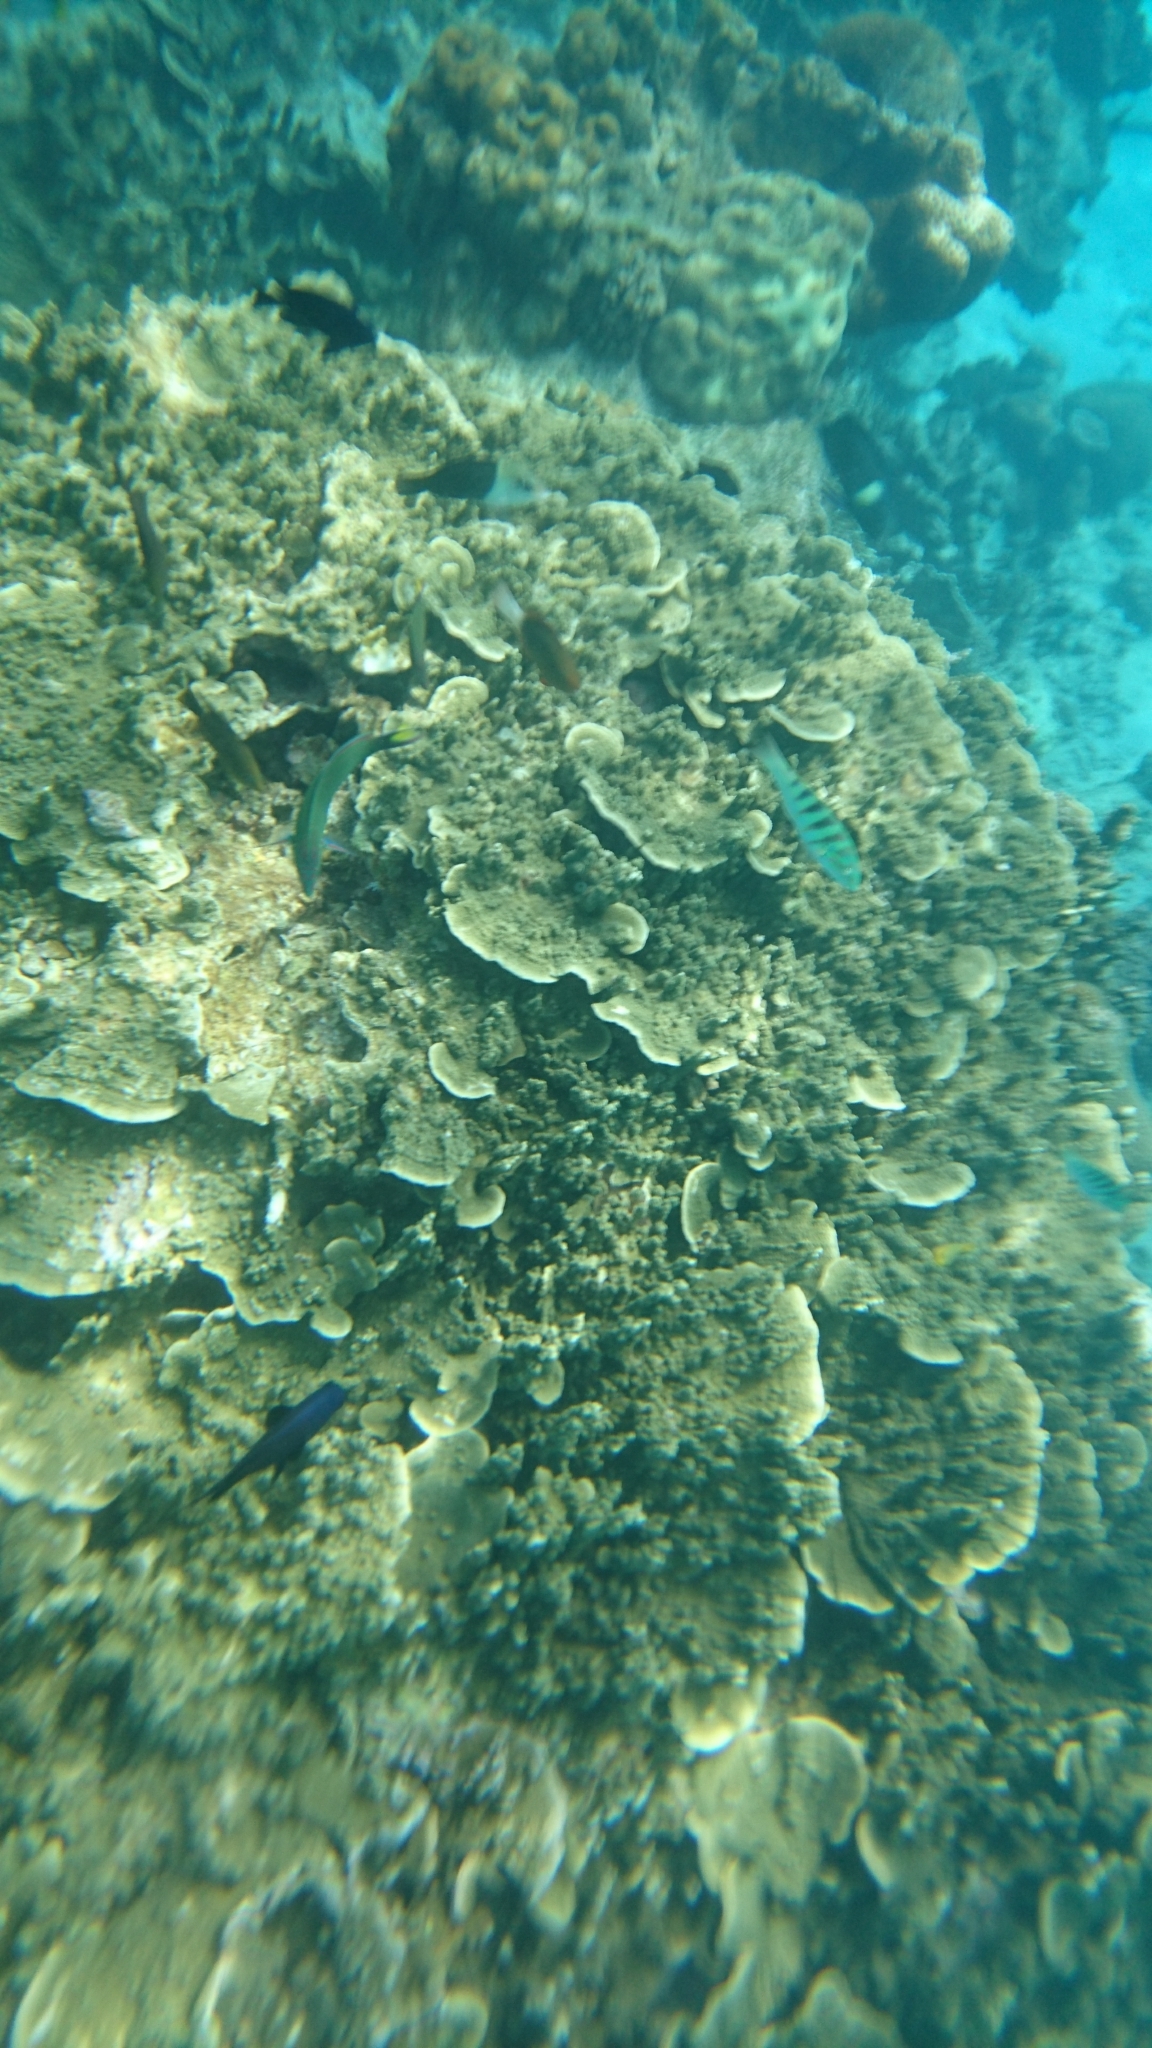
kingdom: Animalia
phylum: Chordata
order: Perciformes
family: Labridae
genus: Hemigymnus
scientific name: Hemigymnus melapterus
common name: Blackeye thicklip
